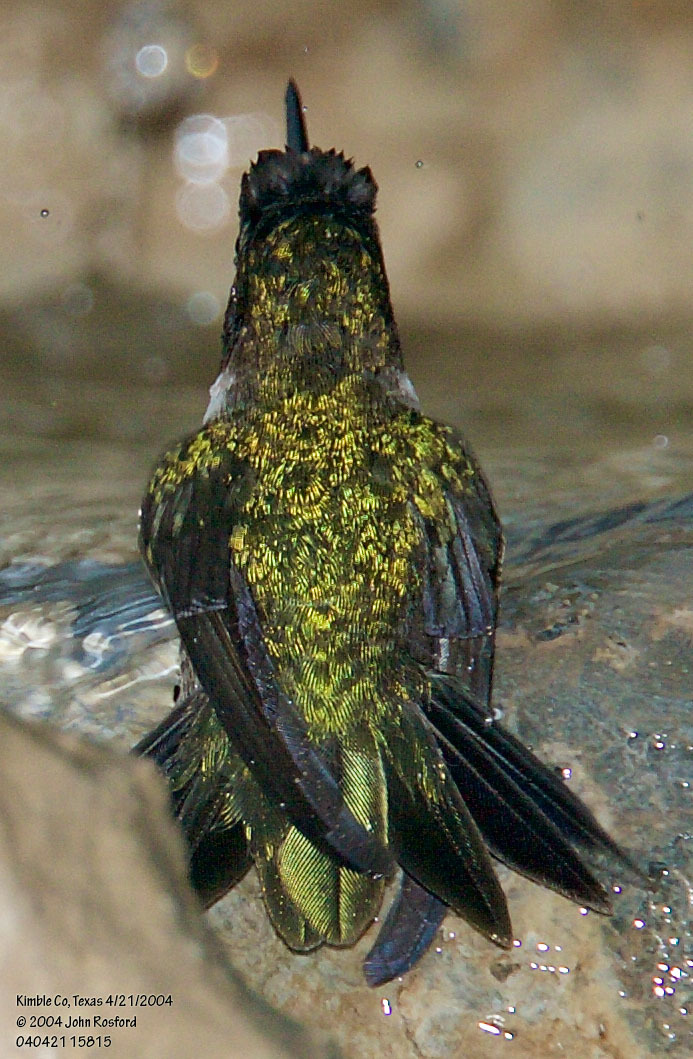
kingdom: Animalia
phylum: Chordata
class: Aves
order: Apodiformes
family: Trochilidae
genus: Archilochus
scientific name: Archilochus alexandri
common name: Black-chinned hummingbird
